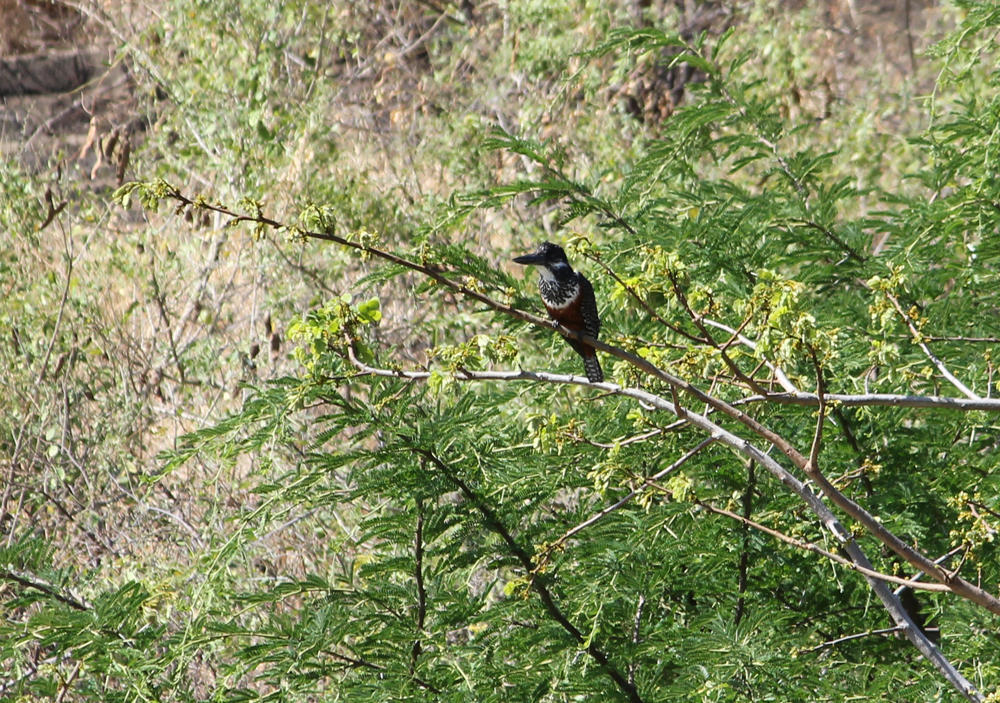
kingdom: Animalia
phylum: Chordata
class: Aves
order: Coraciiformes
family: Alcedinidae
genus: Megaceryle
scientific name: Megaceryle maxima
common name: Giant kingfisher
